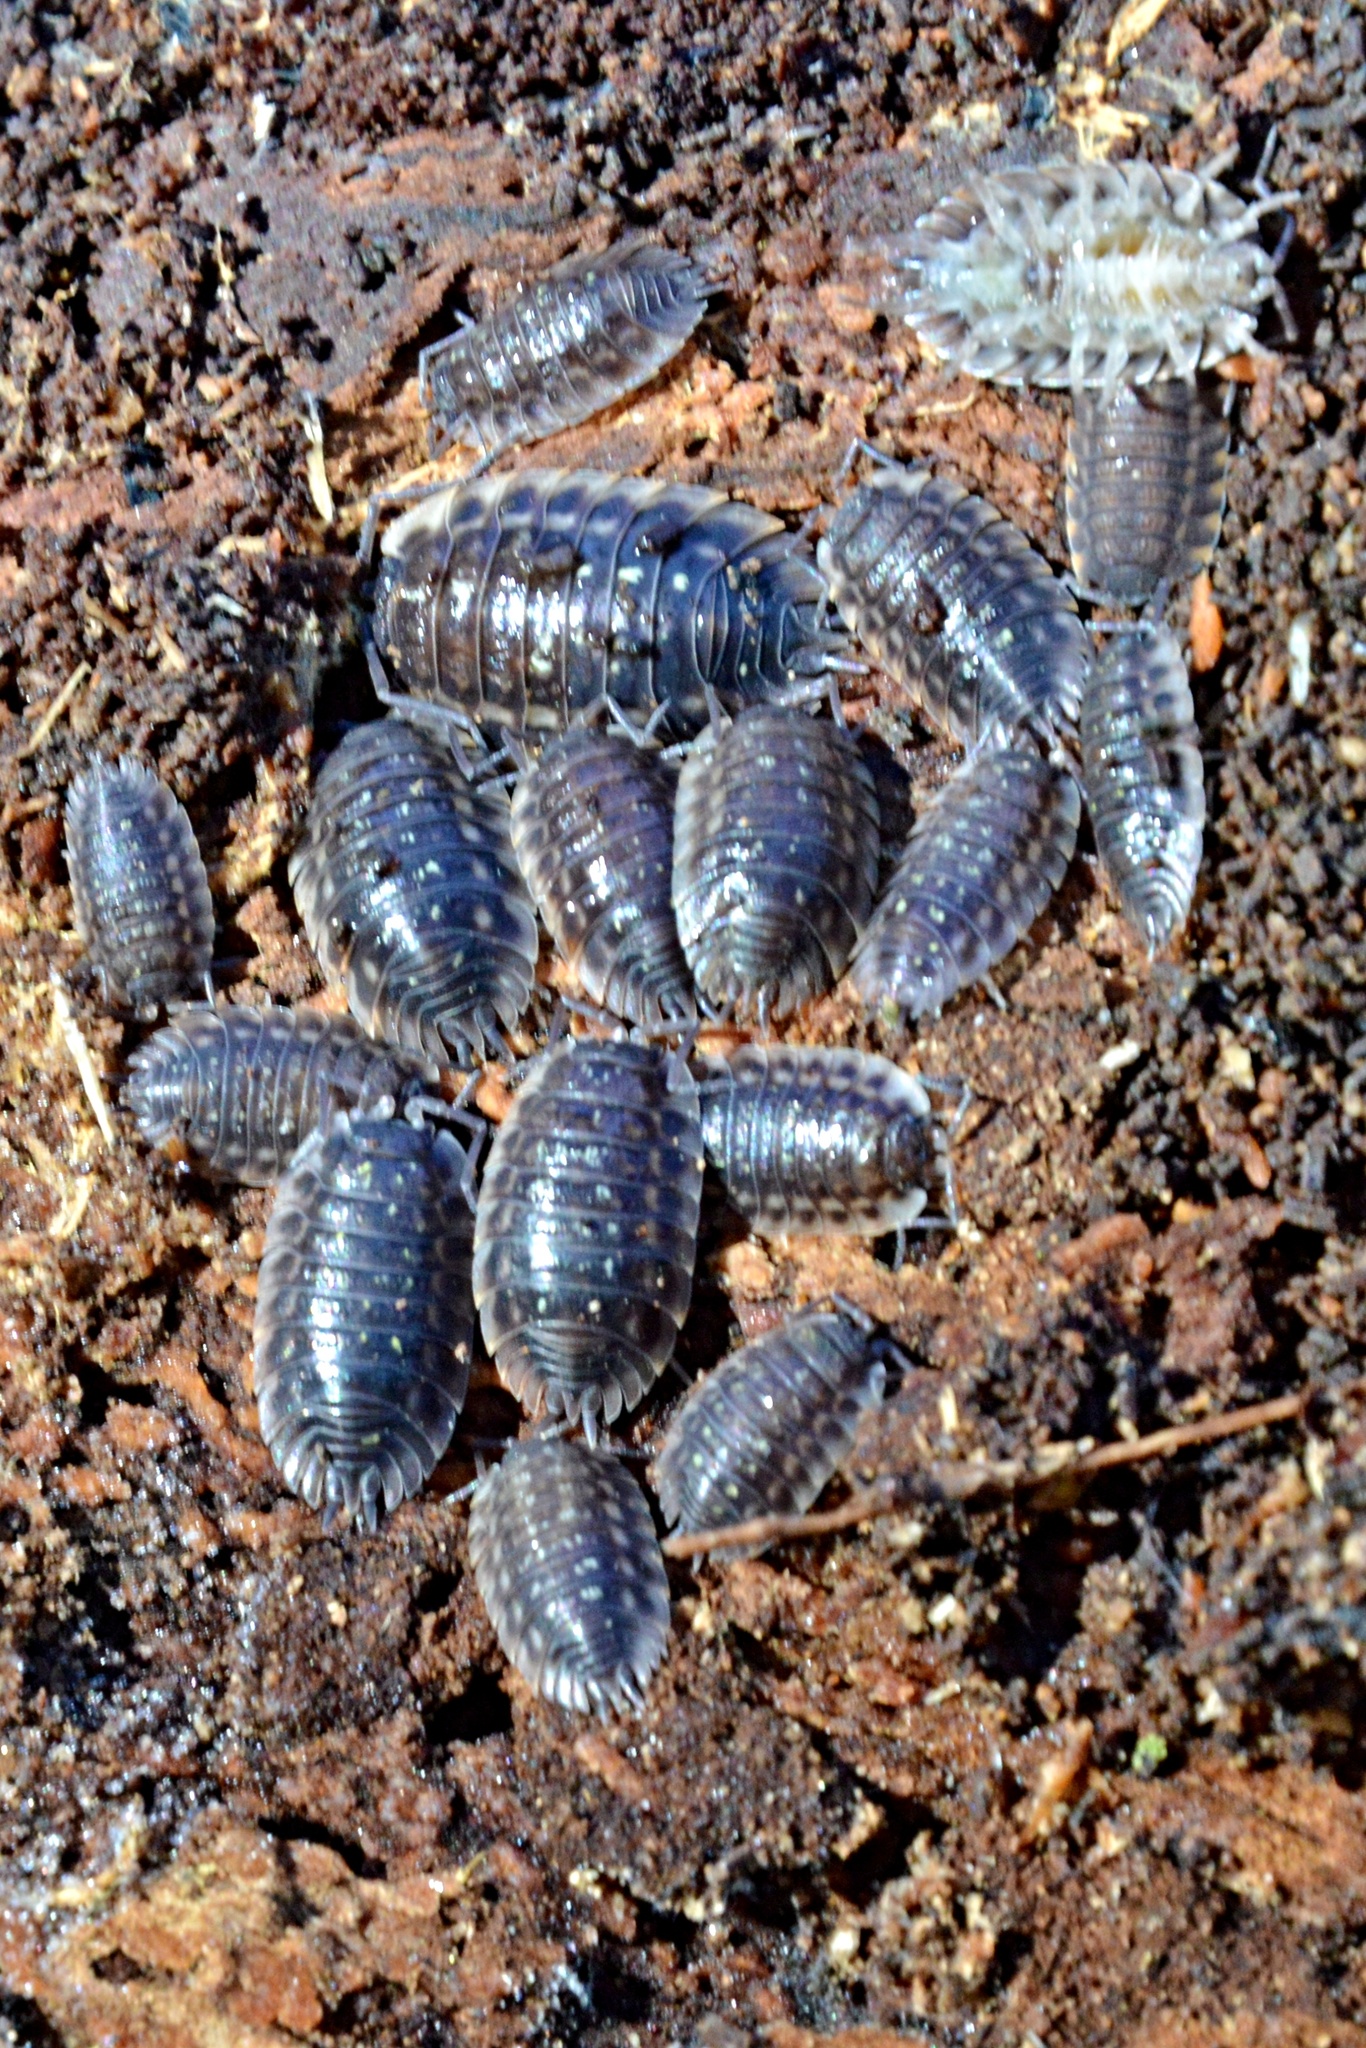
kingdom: Animalia
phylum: Arthropoda
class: Malacostraca
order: Isopoda
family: Oniscidae
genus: Oniscus
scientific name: Oniscus asellus
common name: Common shiny woodlouse
